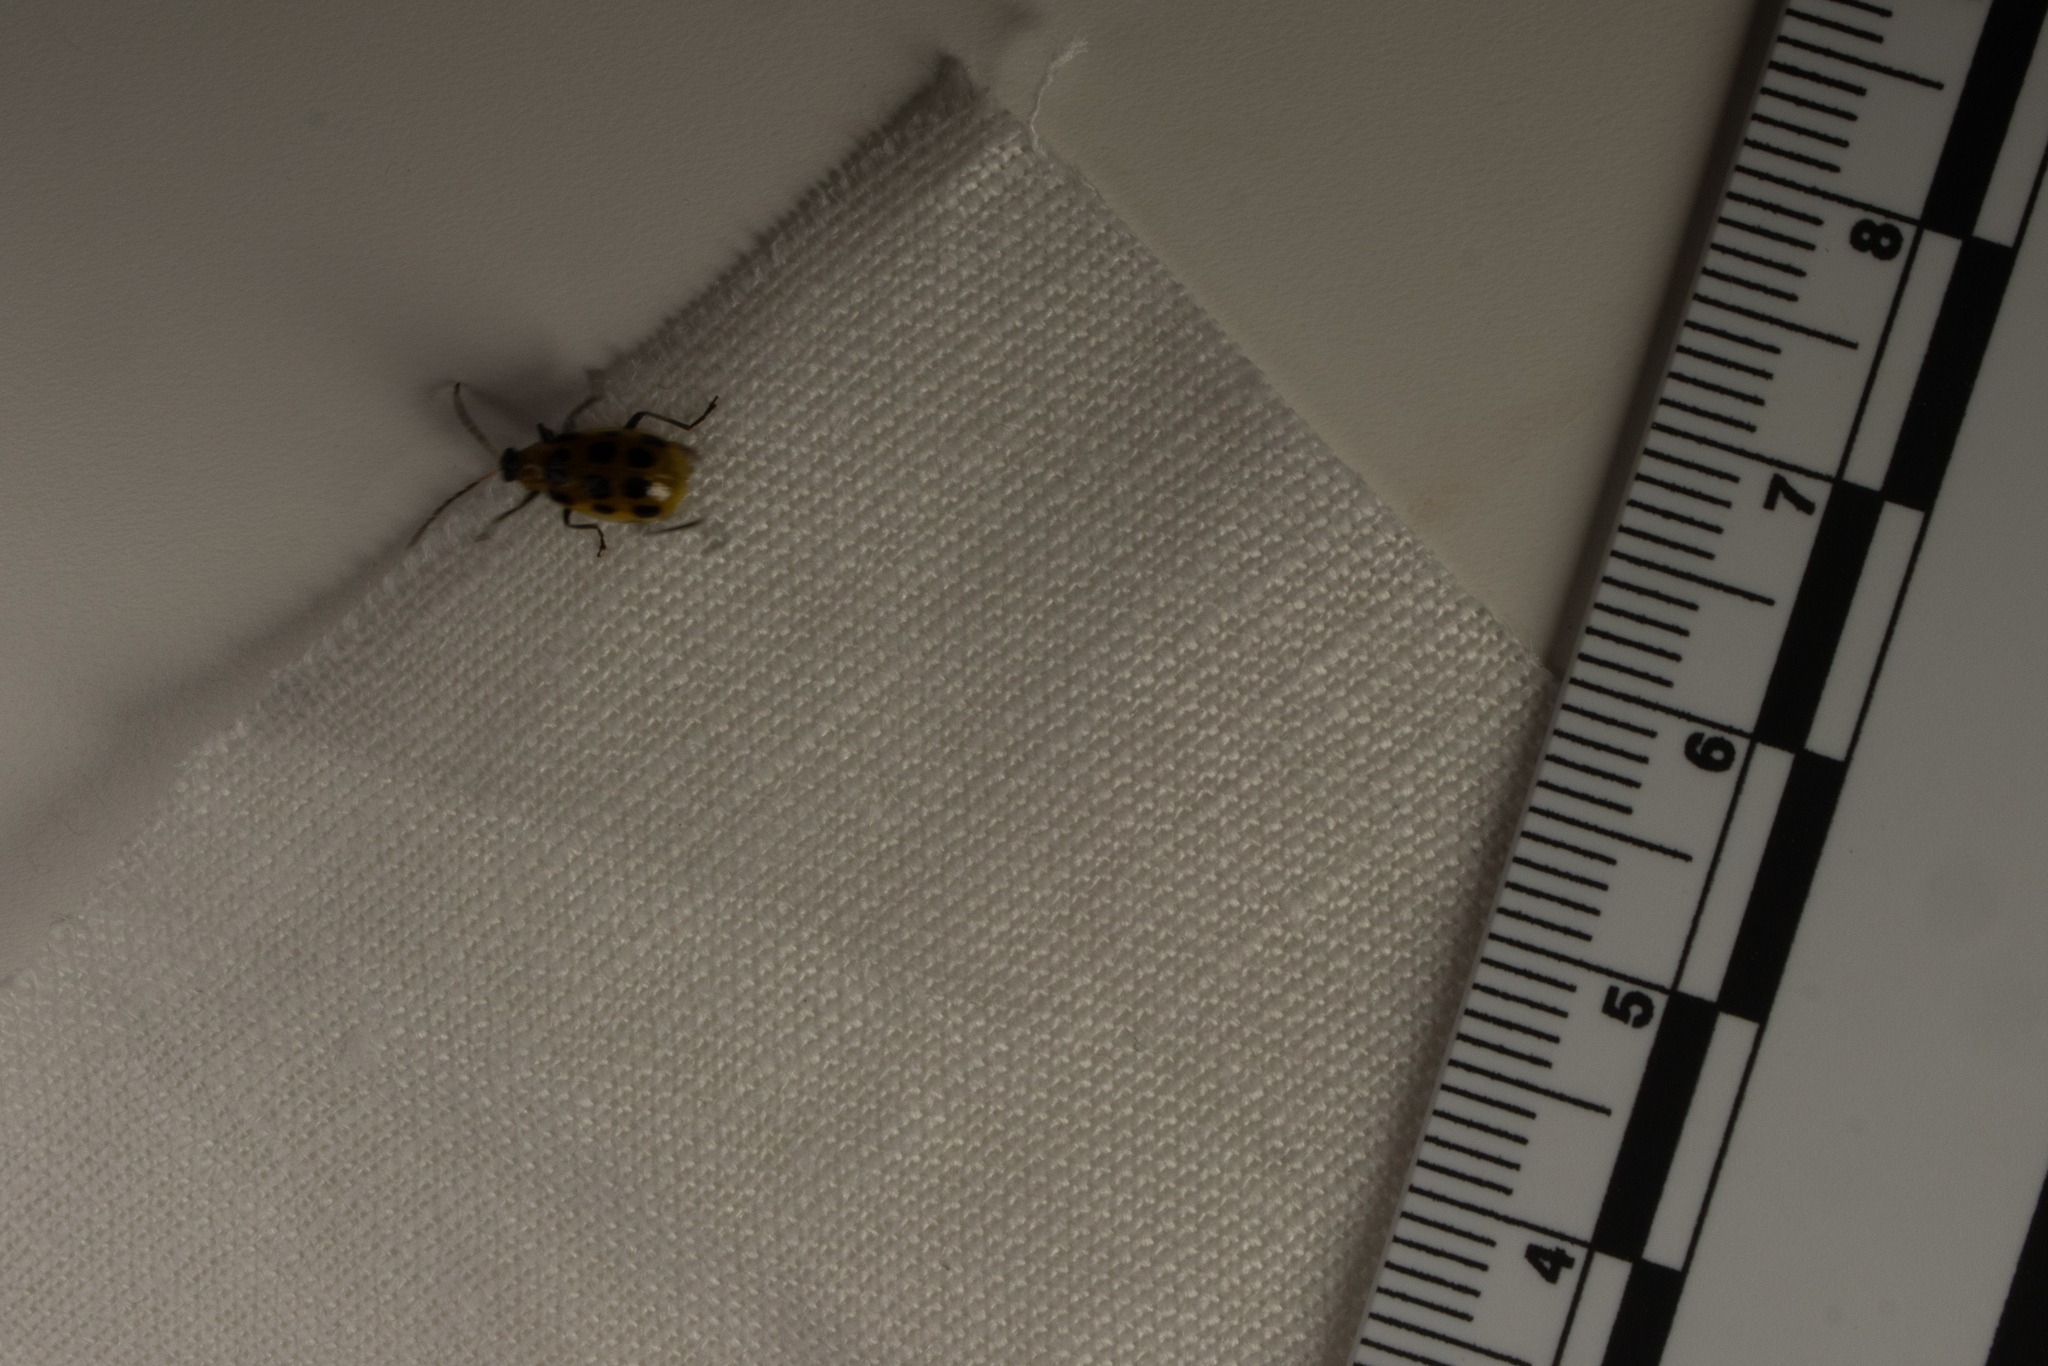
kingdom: Animalia
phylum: Arthropoda
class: Insecta
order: Coleoptera
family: Chrysomelidae
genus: Diabrotica
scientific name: Diabrotica undecimpunctata
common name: Spotted cucumber beetle
